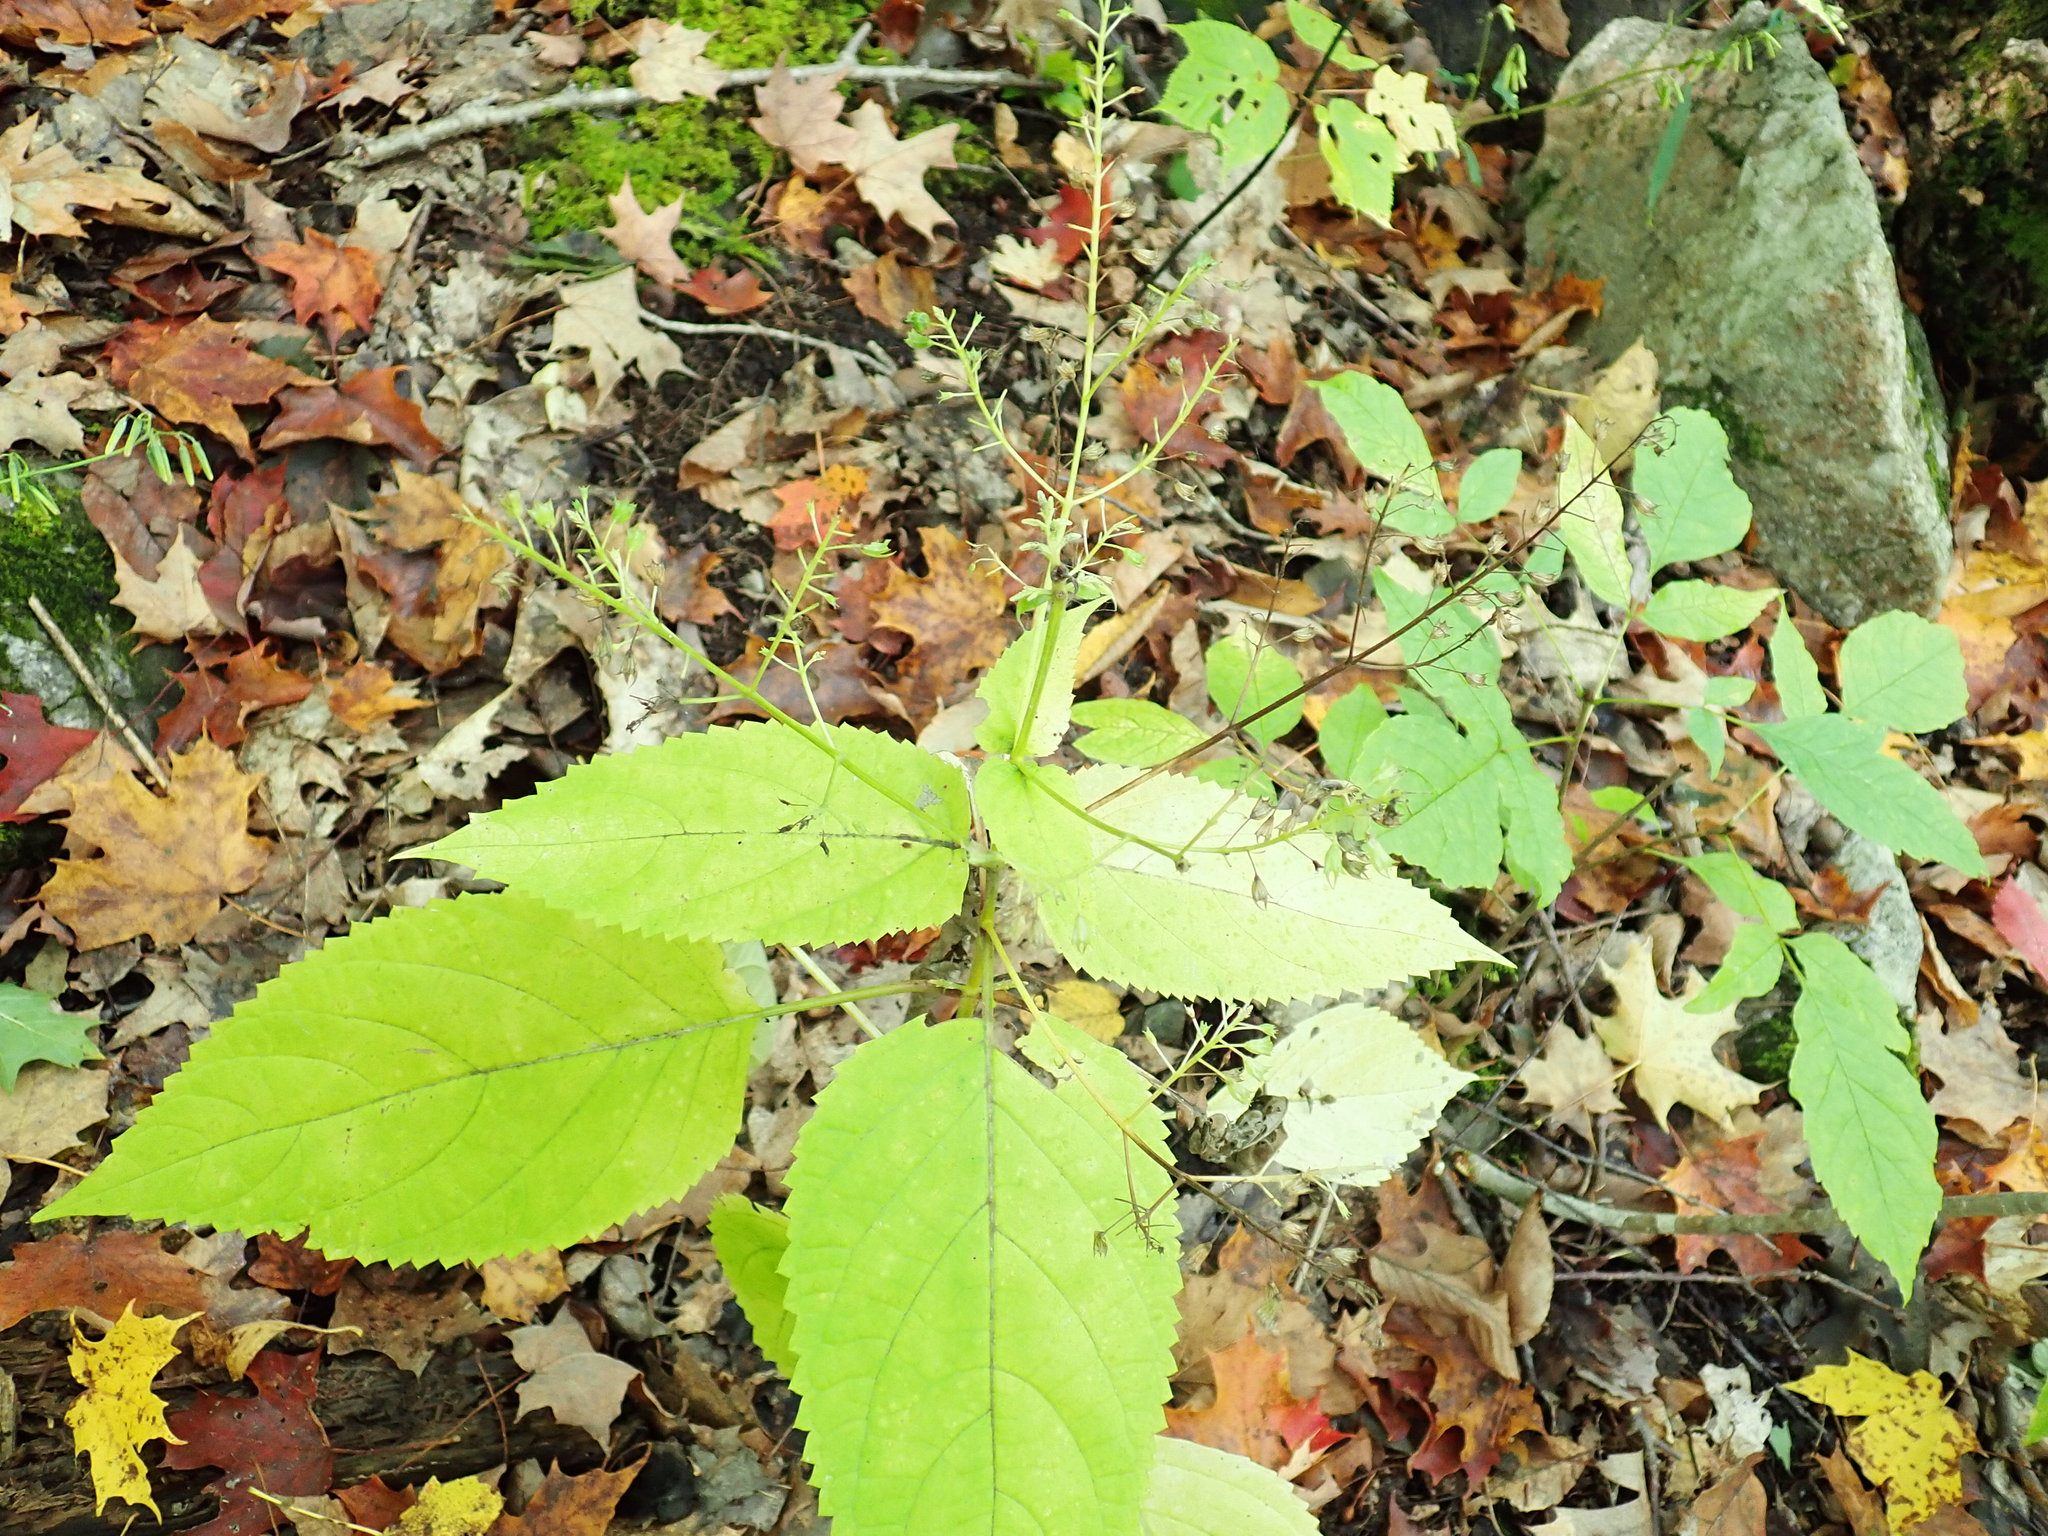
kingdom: Plantae
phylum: Tracheophyta
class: Magnoliopsida
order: Lamiales
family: Lamiaceae
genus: Collinsonia
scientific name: Collinsonia canadensis
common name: Northern horsebalm
